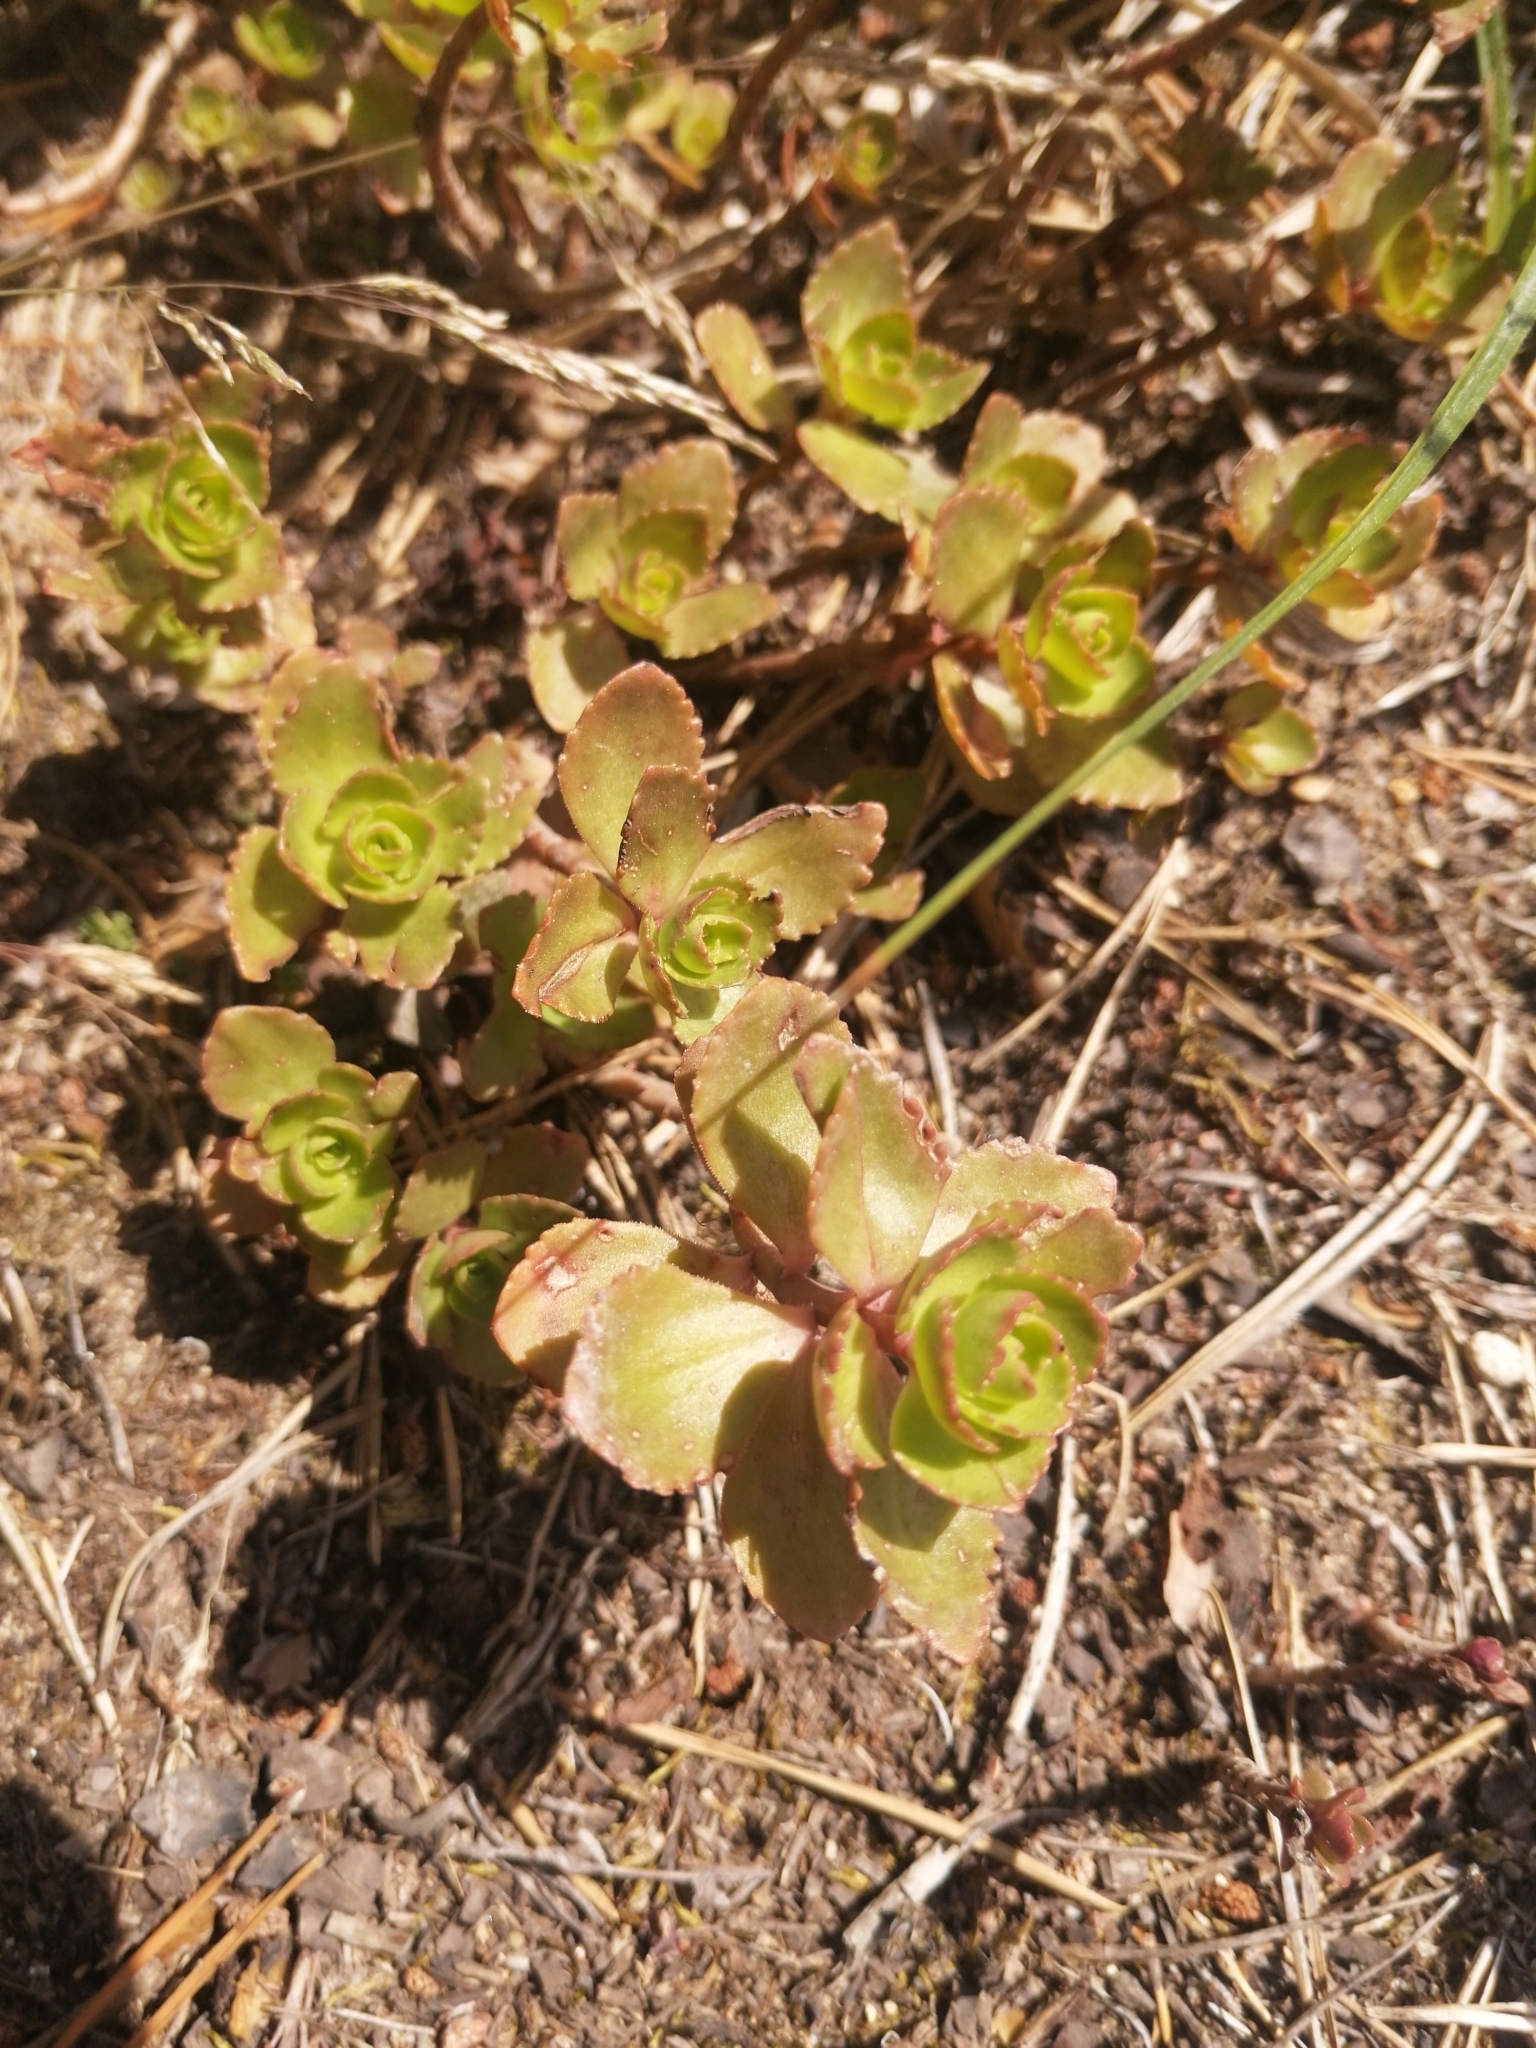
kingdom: Plantae
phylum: Tracheophyta
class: Magnoliopsida
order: Saxifragales
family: Crassulaceae
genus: Phedimus
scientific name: Phedimus spurius
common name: Caucasian stonecrop
